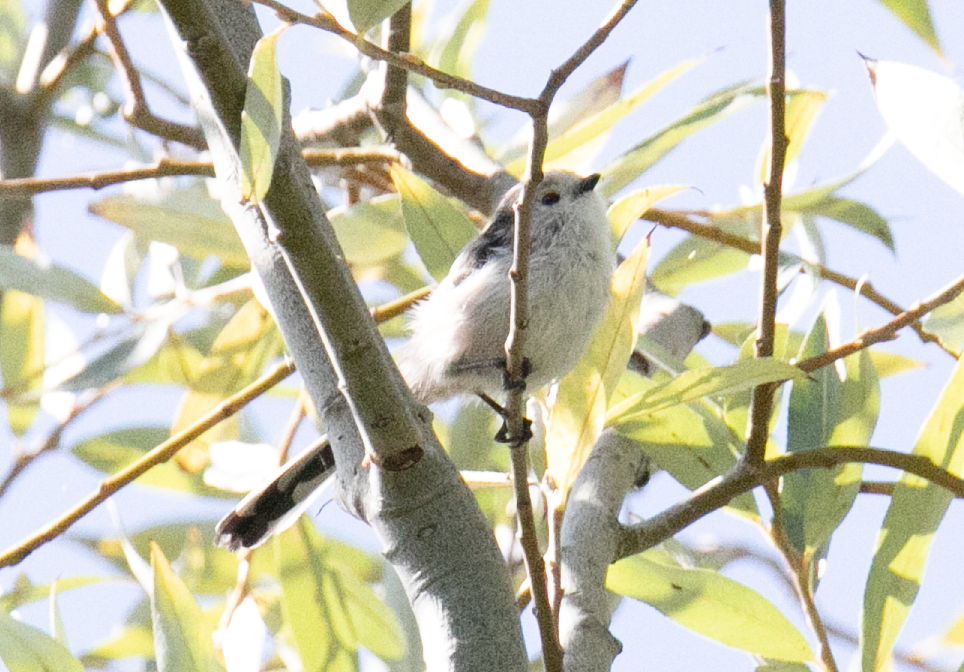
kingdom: Animalia
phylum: Chordata
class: Aves
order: Passeriformes
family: Aegithalidae
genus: Aegithalos
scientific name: Aegithalos caudatus
